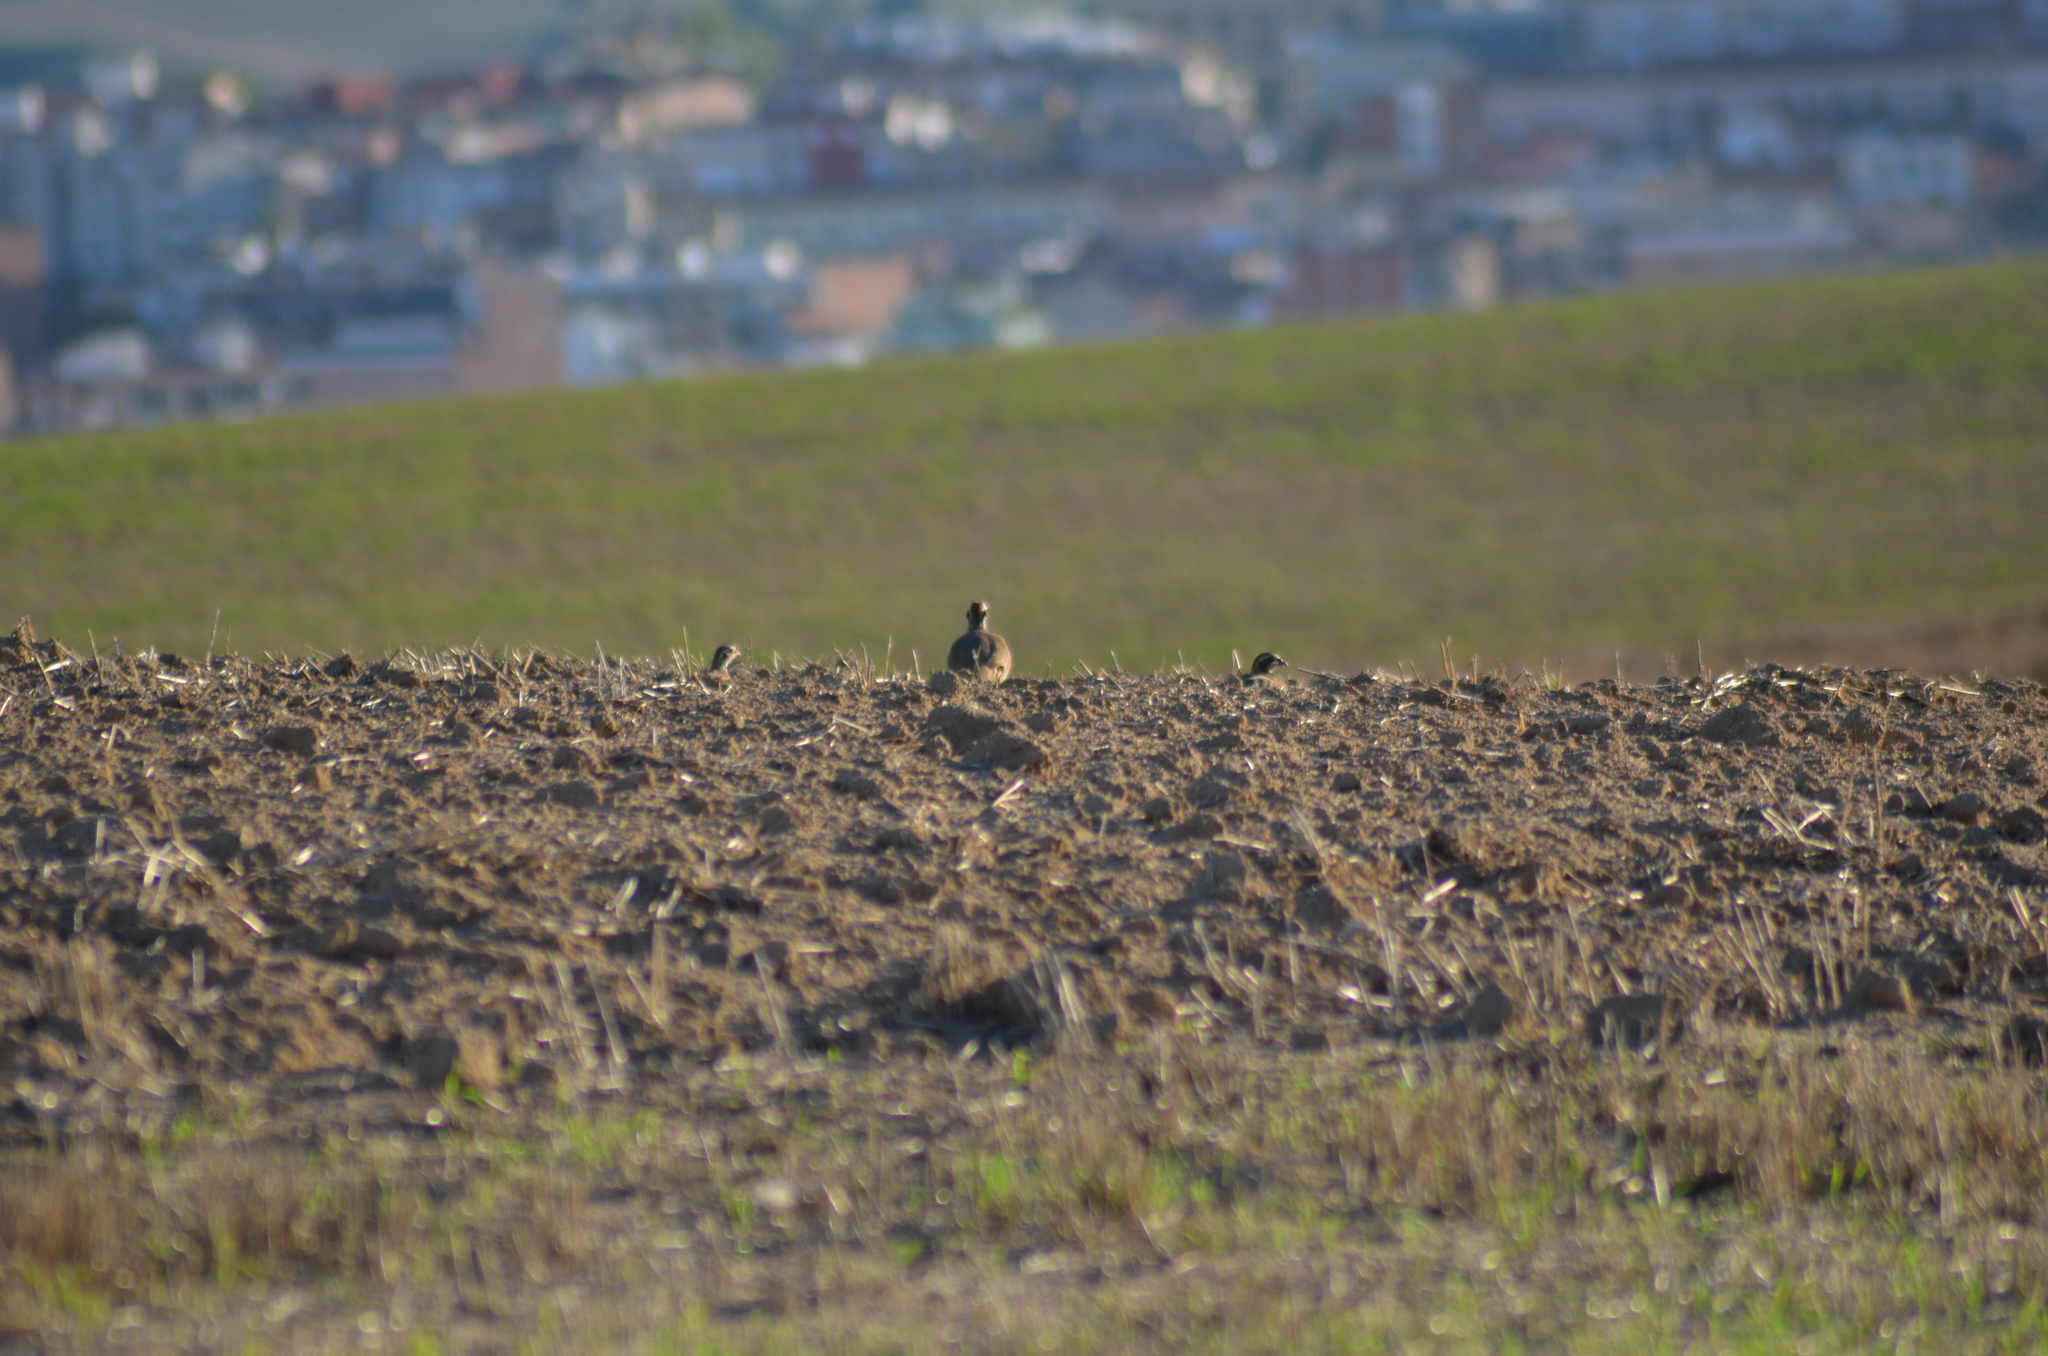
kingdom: Animalia
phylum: Chordata
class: Aves
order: Galliformes
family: Phasianidae
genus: Alectoris
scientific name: Alectoris rufa
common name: Red-legged partridge
